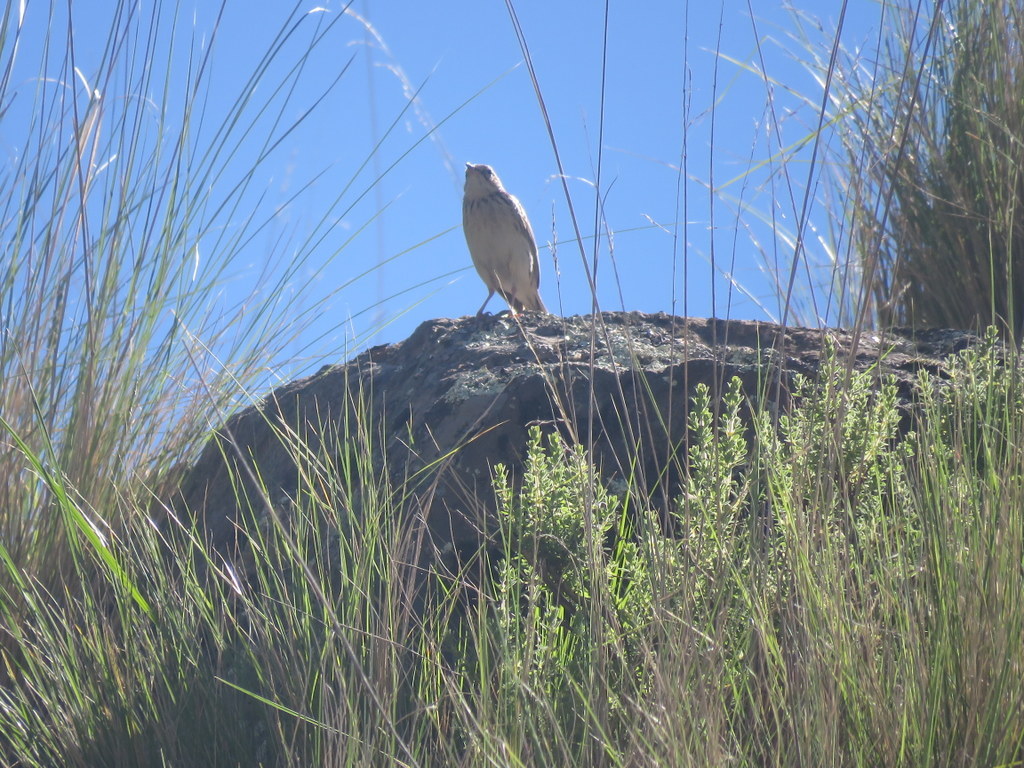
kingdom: Animalia
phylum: Chordata
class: Aves
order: Passeriformes
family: Motacillidae
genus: Anthus
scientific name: Anthus hellmayri
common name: Hellmayr's pipit
